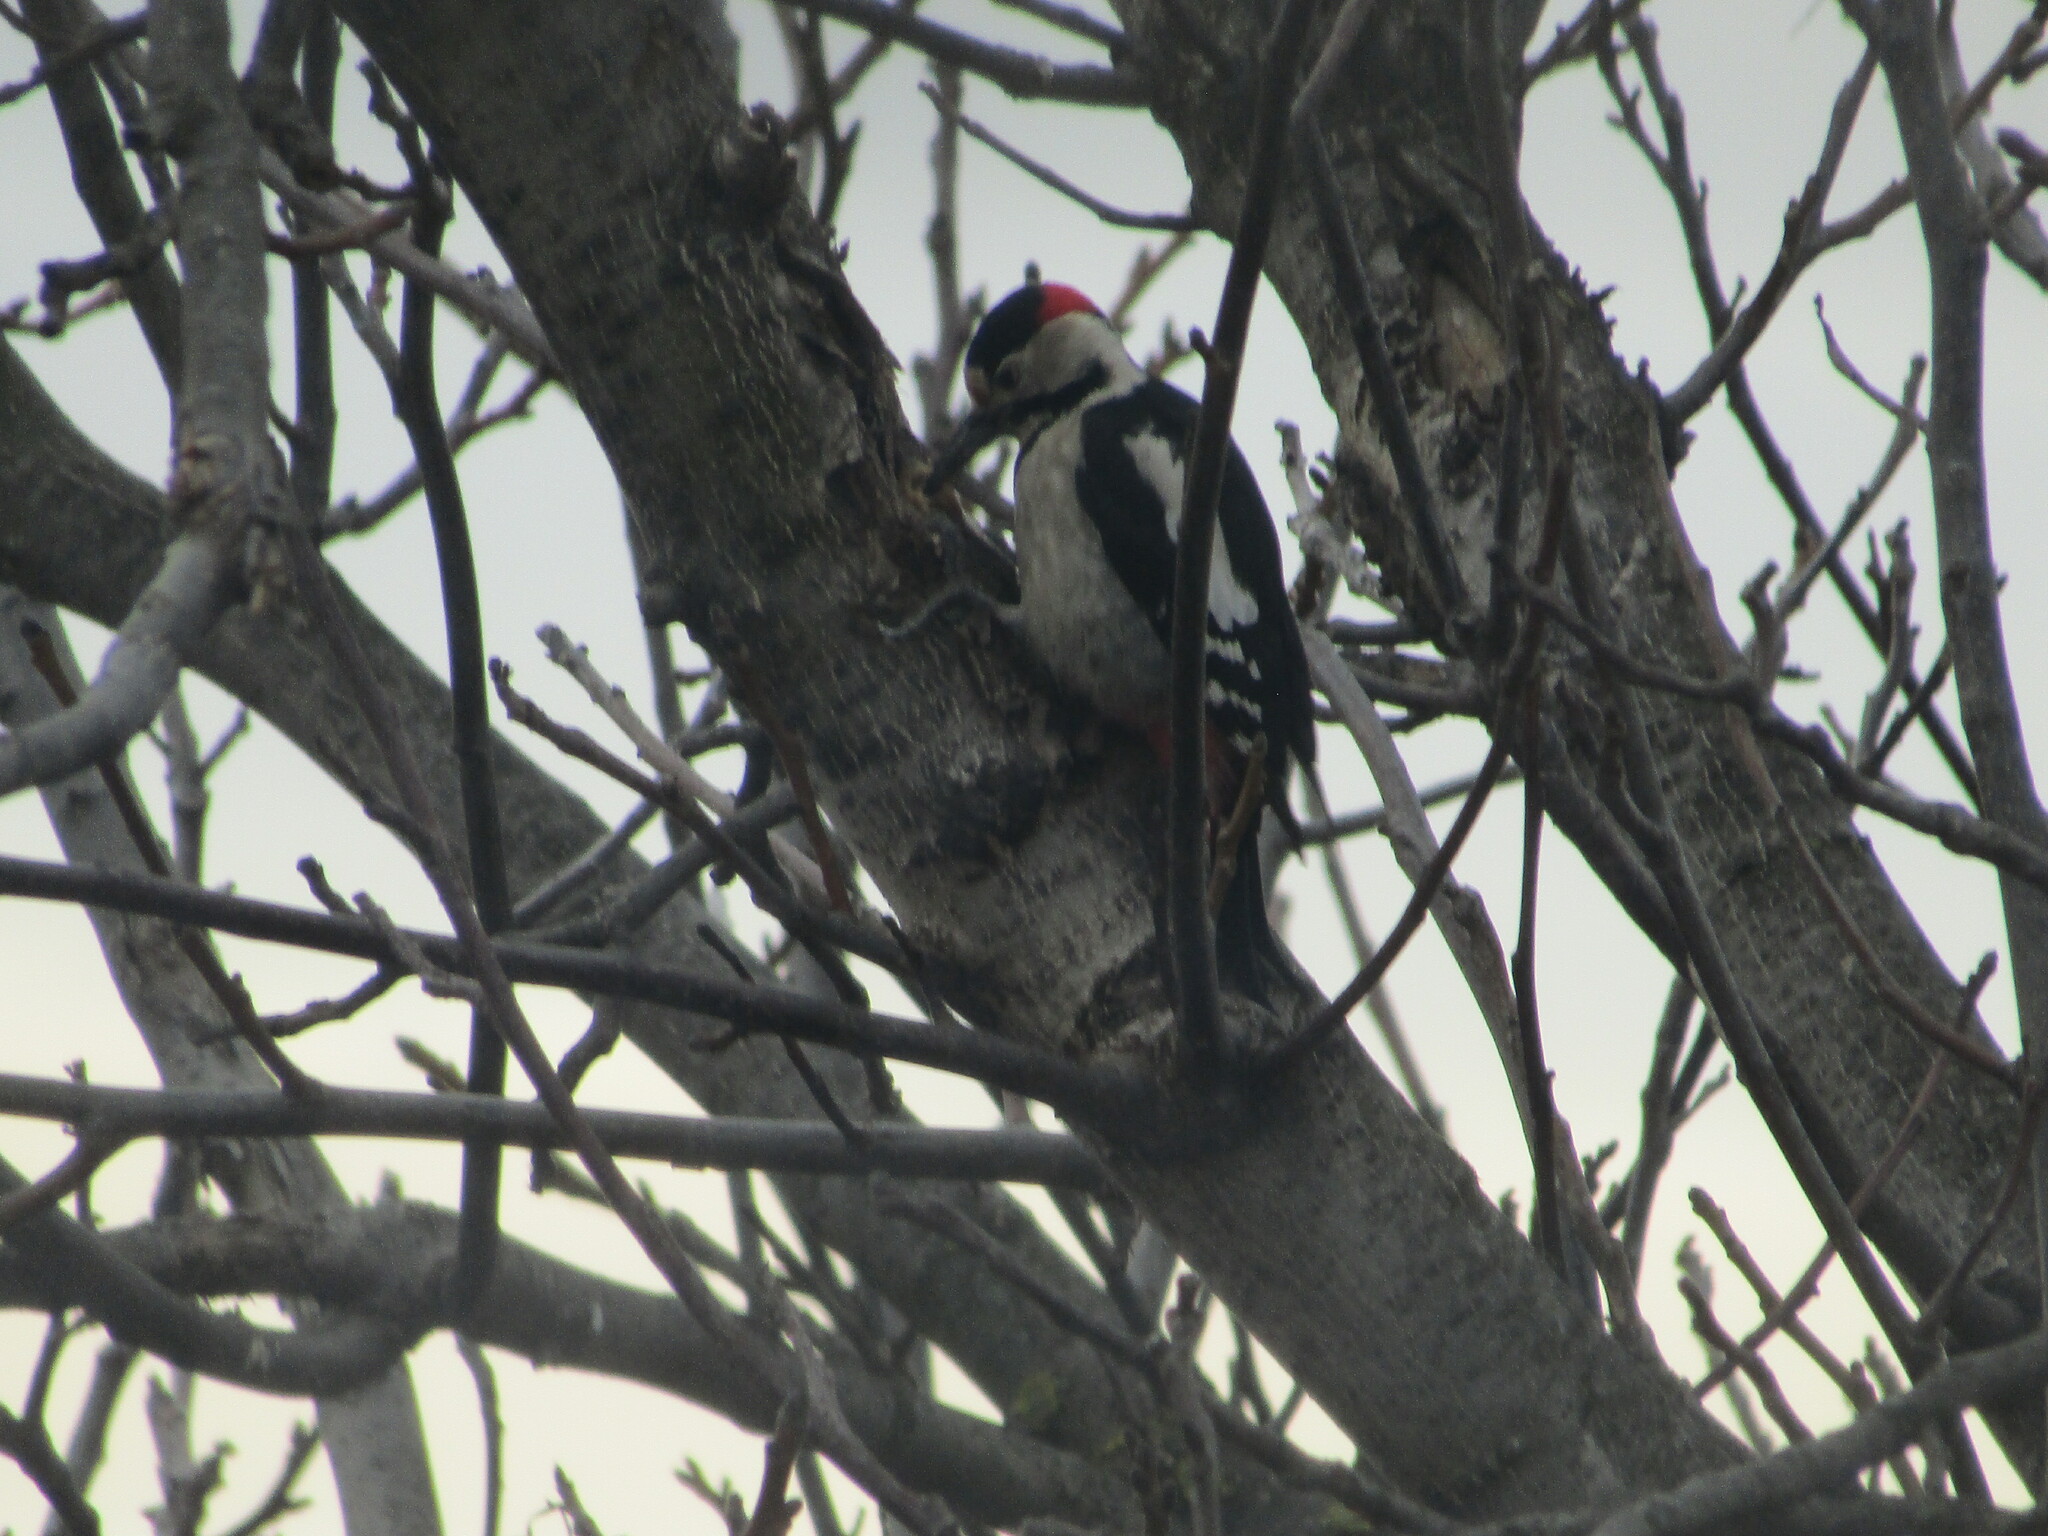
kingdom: Animalia
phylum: Chordata
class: Aves
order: Piciformes
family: Picidae
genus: Dendrocopos
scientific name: Dendrocopos syriacus
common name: Syrian woodpecker
